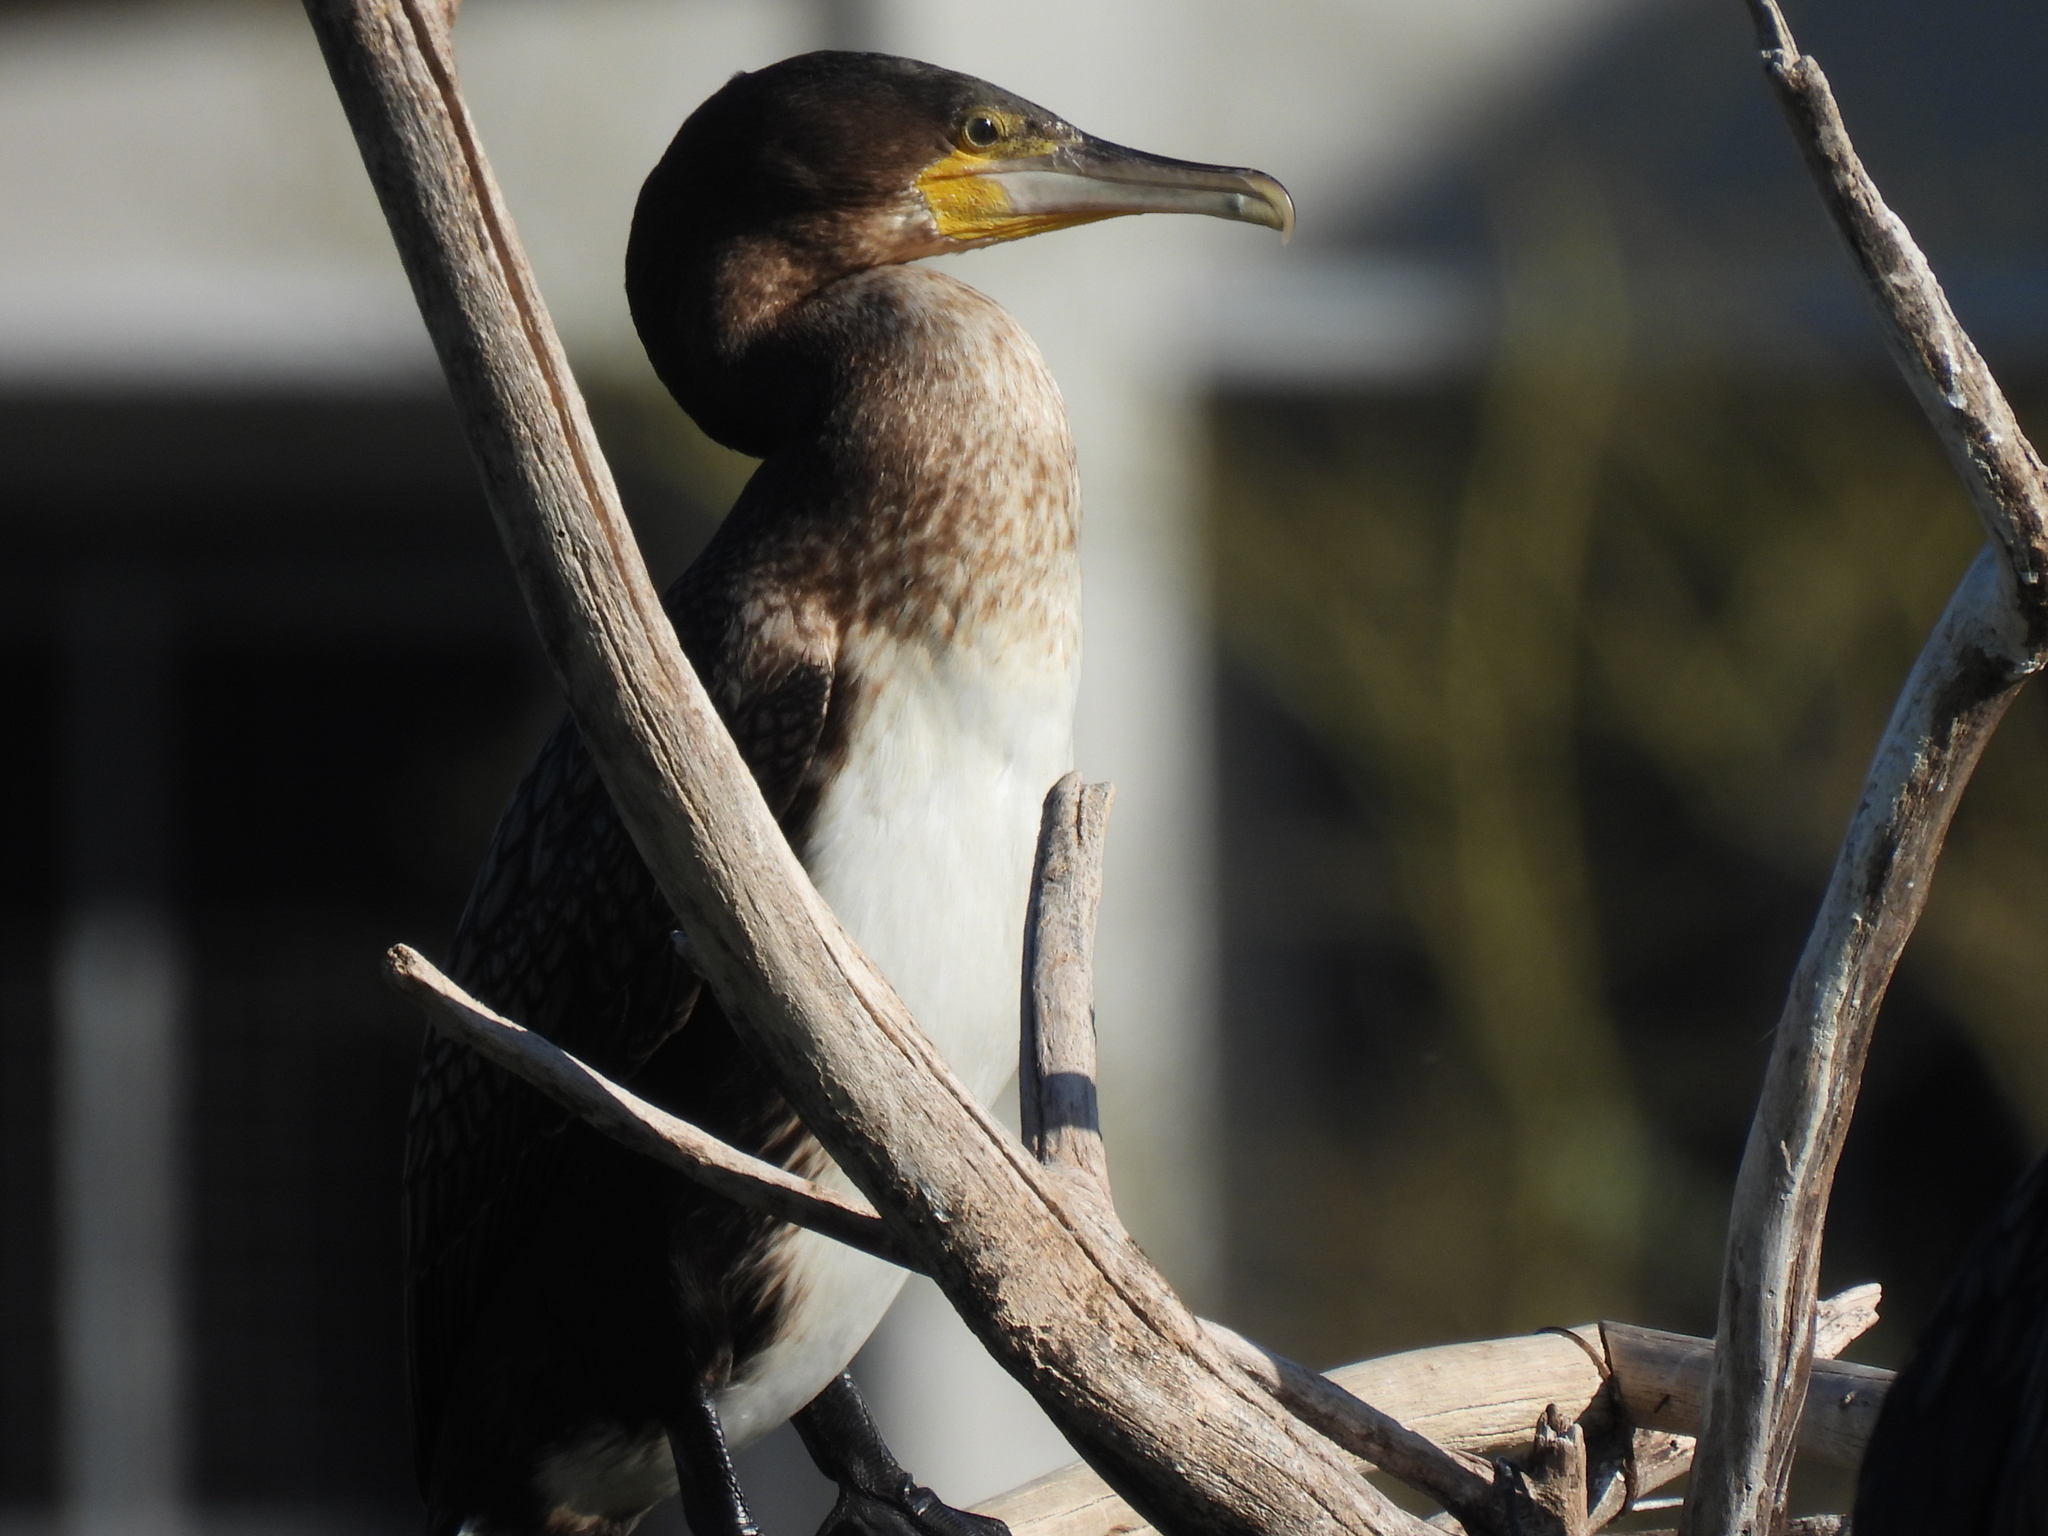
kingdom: Animalia
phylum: Chordata
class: Aves
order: Suliformes
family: Phalacrocoracidae
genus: Phalacrocorax
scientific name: Phalacrocorax carbo
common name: Great cormorant
